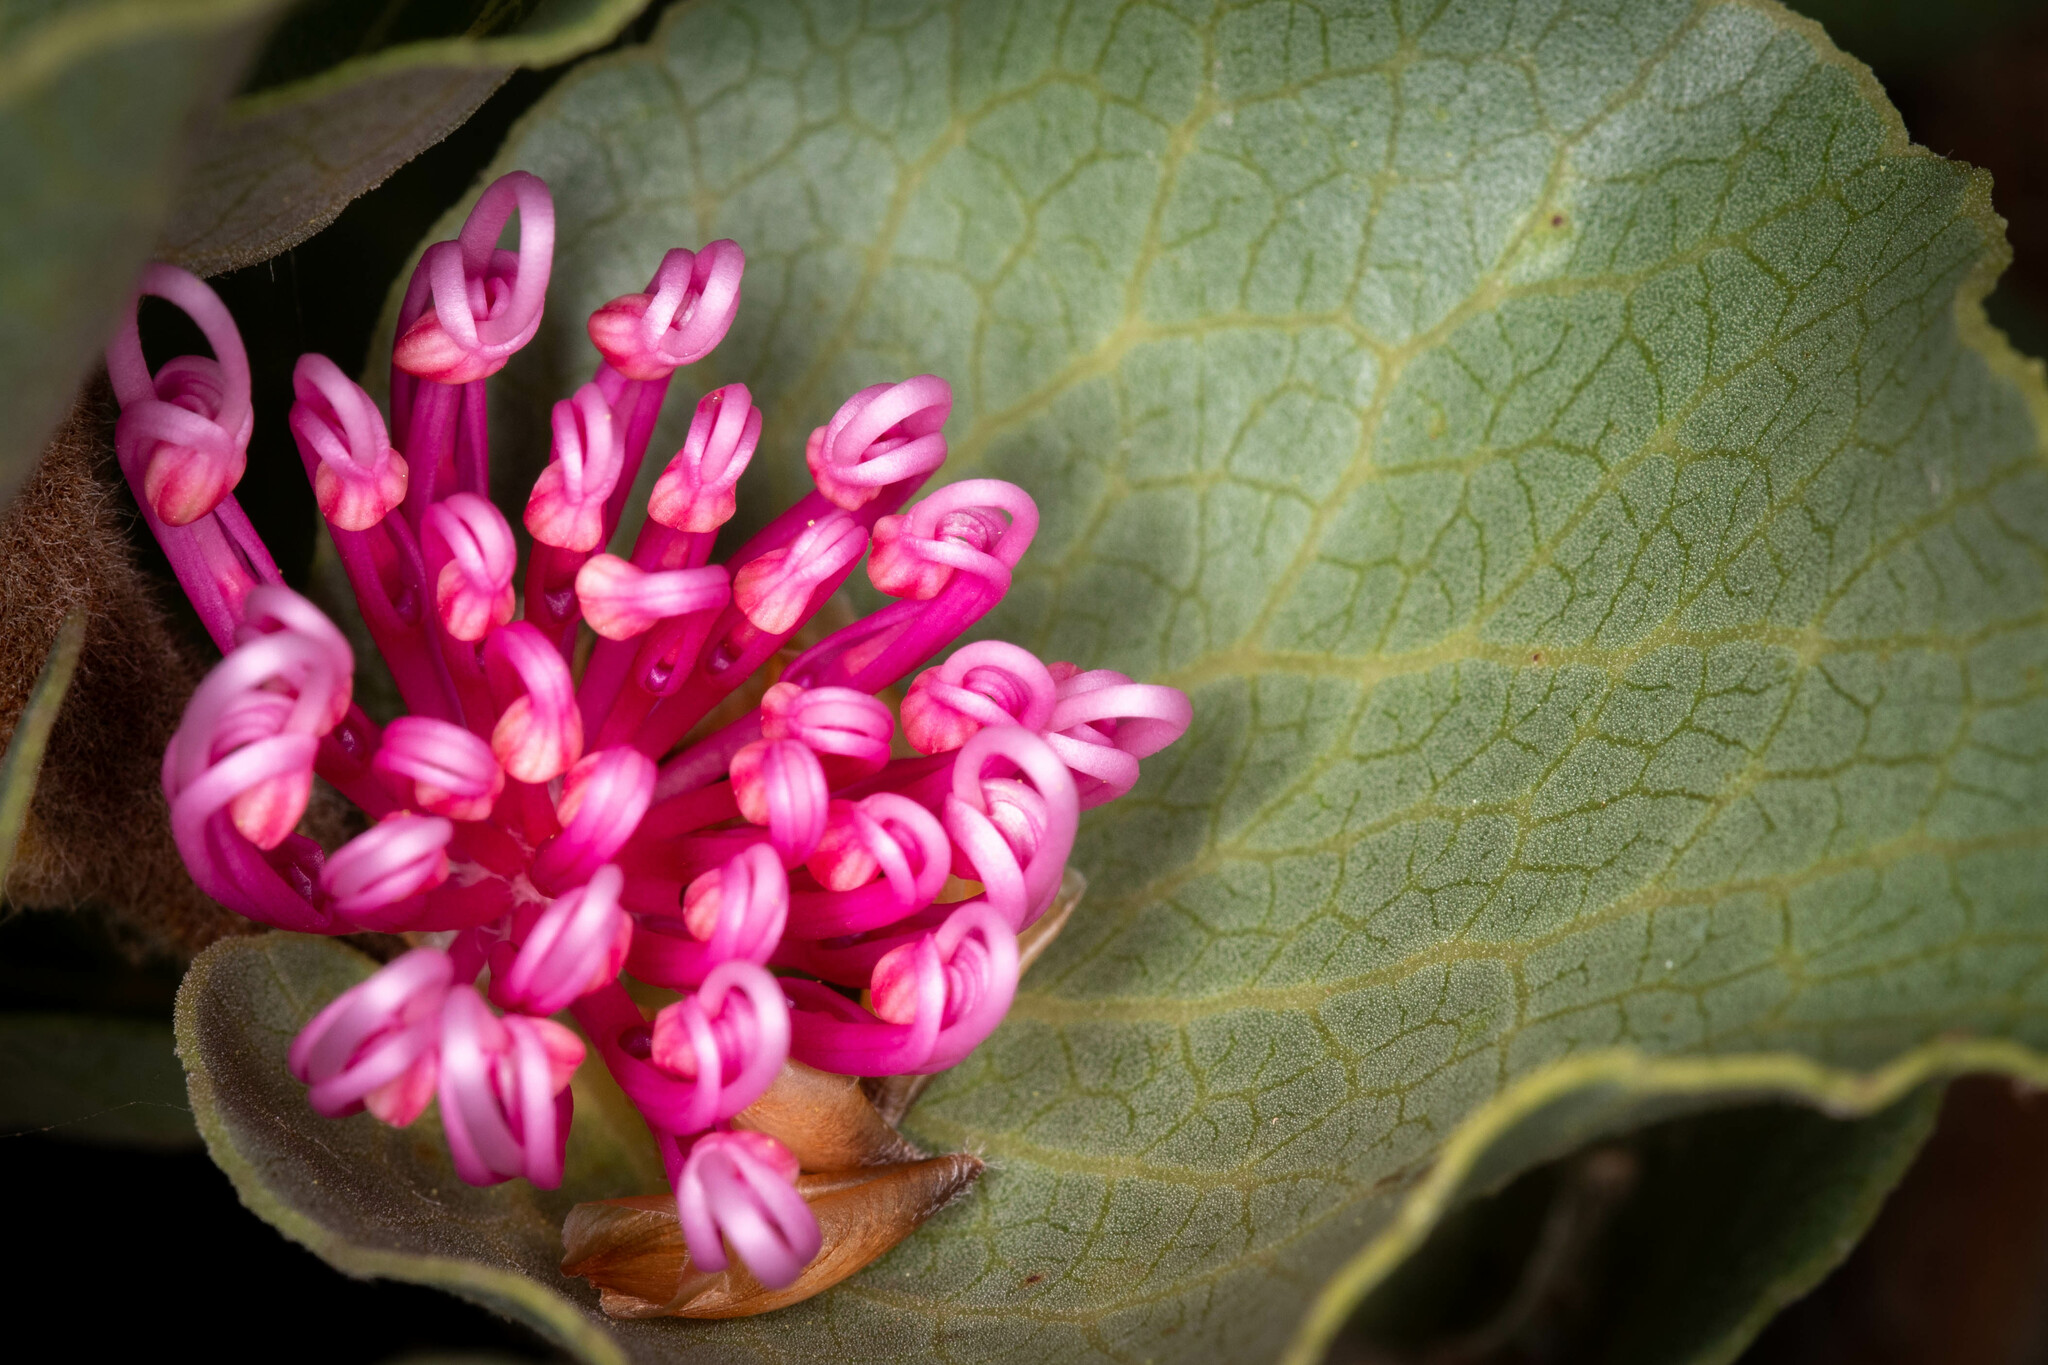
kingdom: Plantae
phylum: Tracheophyta
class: Magnoliopsida
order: Proteales
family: Proteaceae
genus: Hakea
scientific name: Hakea cucullata
